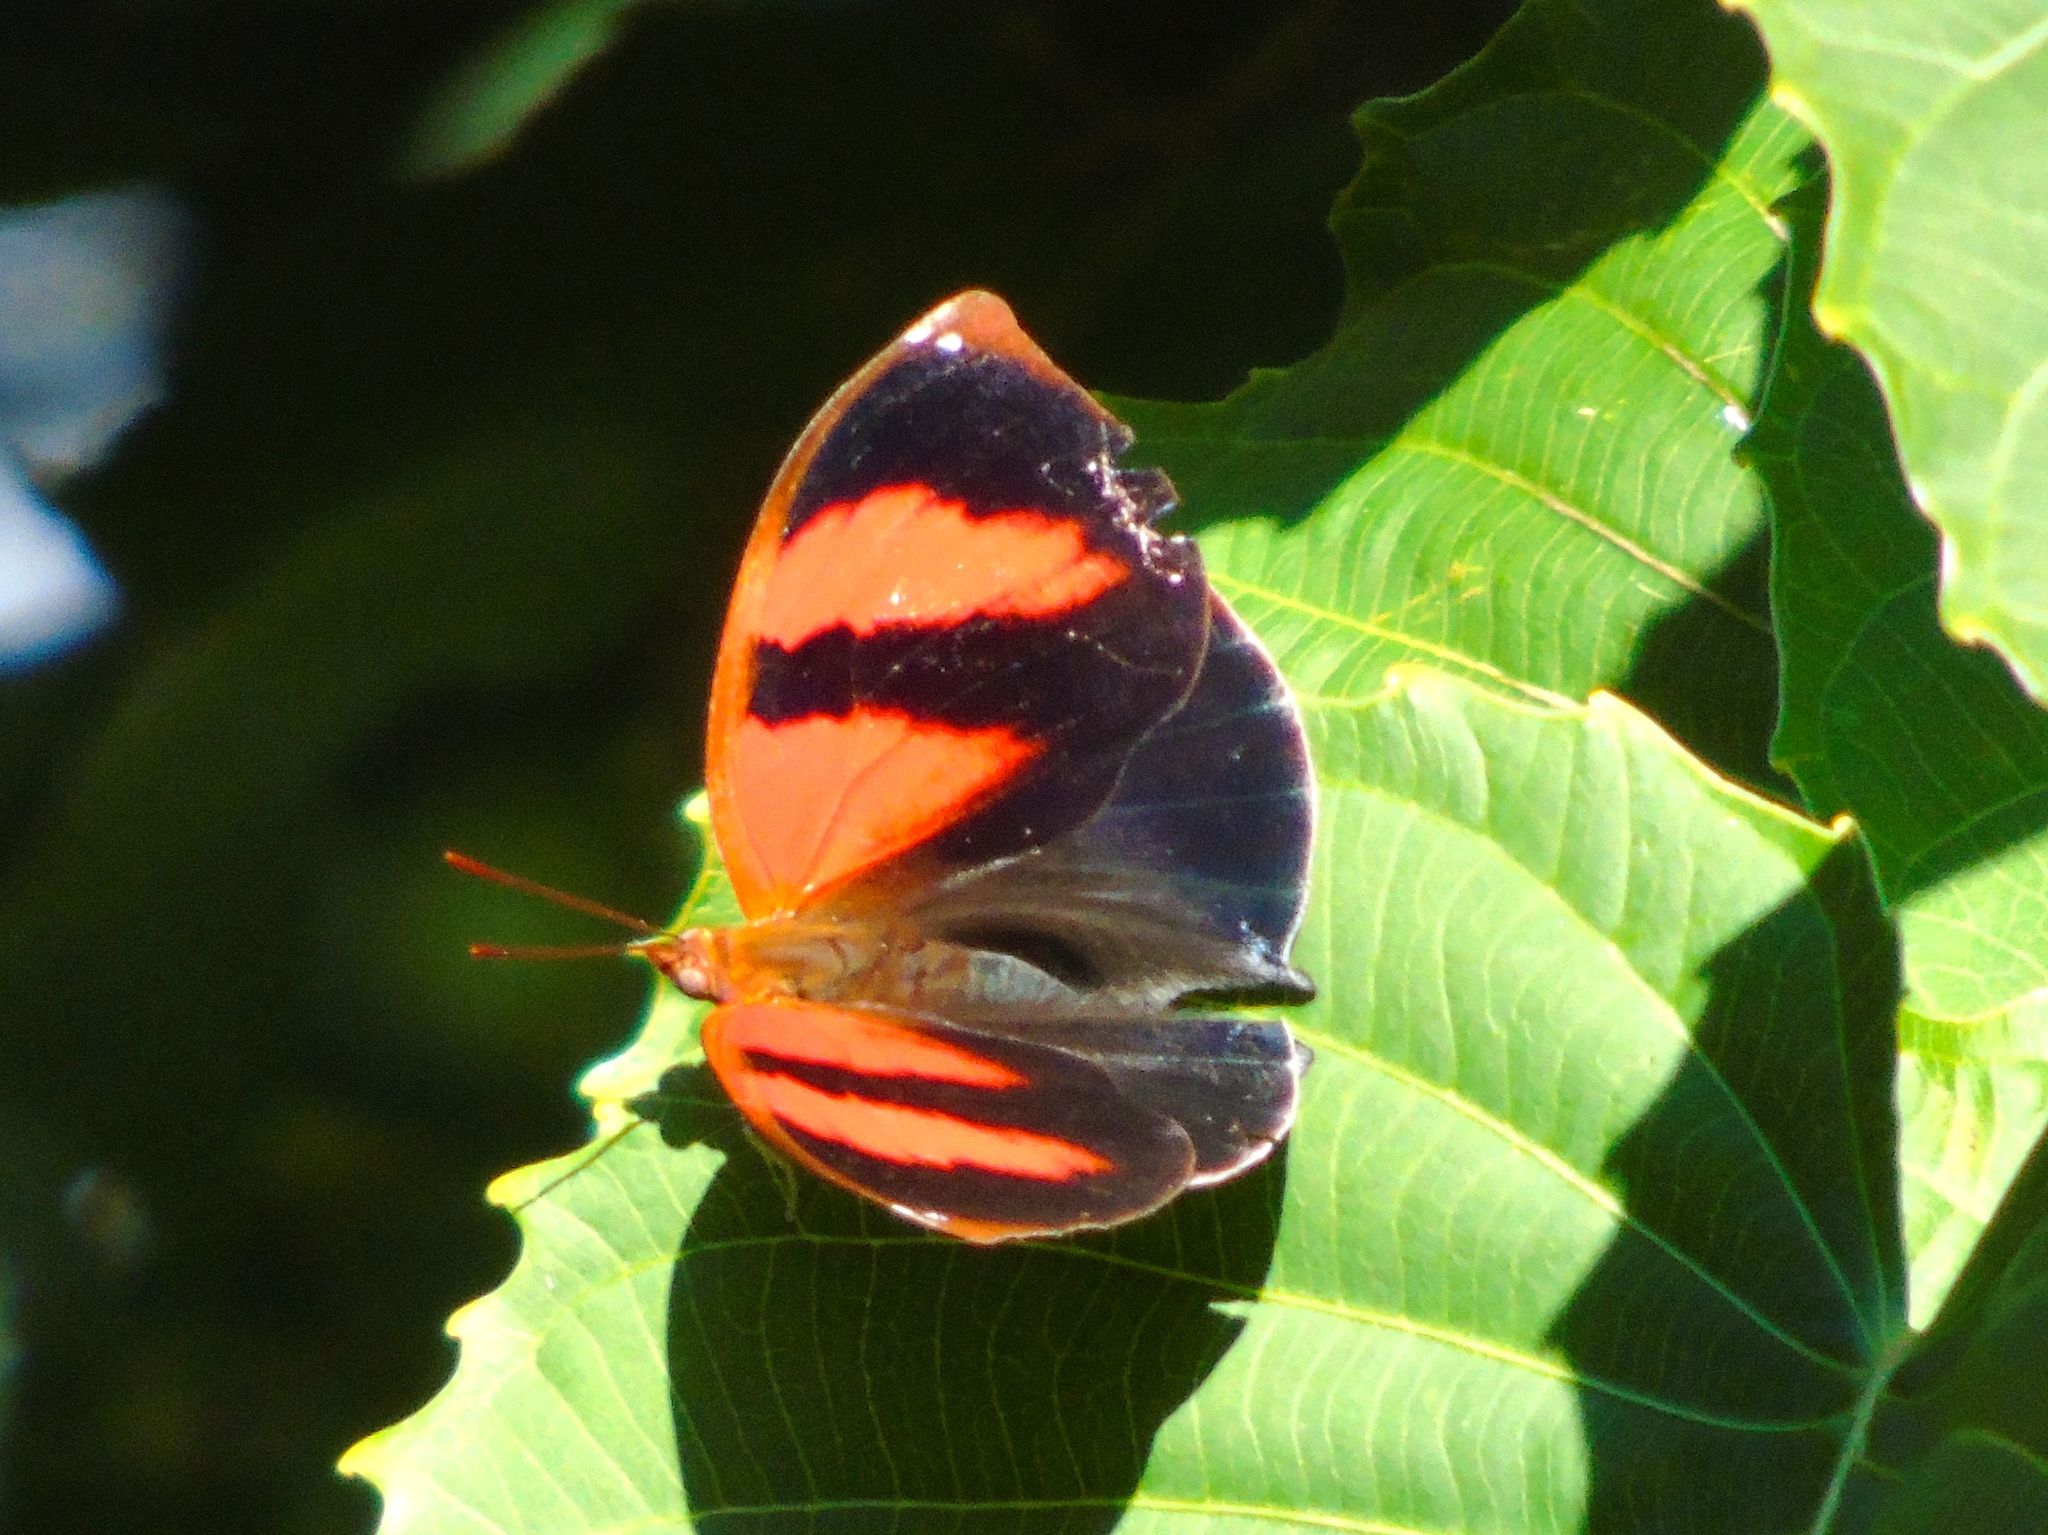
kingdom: Animalia
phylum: Arthropoda
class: Insecta
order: Lepidoptera
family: Nymphalidae
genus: Siderone
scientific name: Siderone galanthis
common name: Red-striped leafwing
